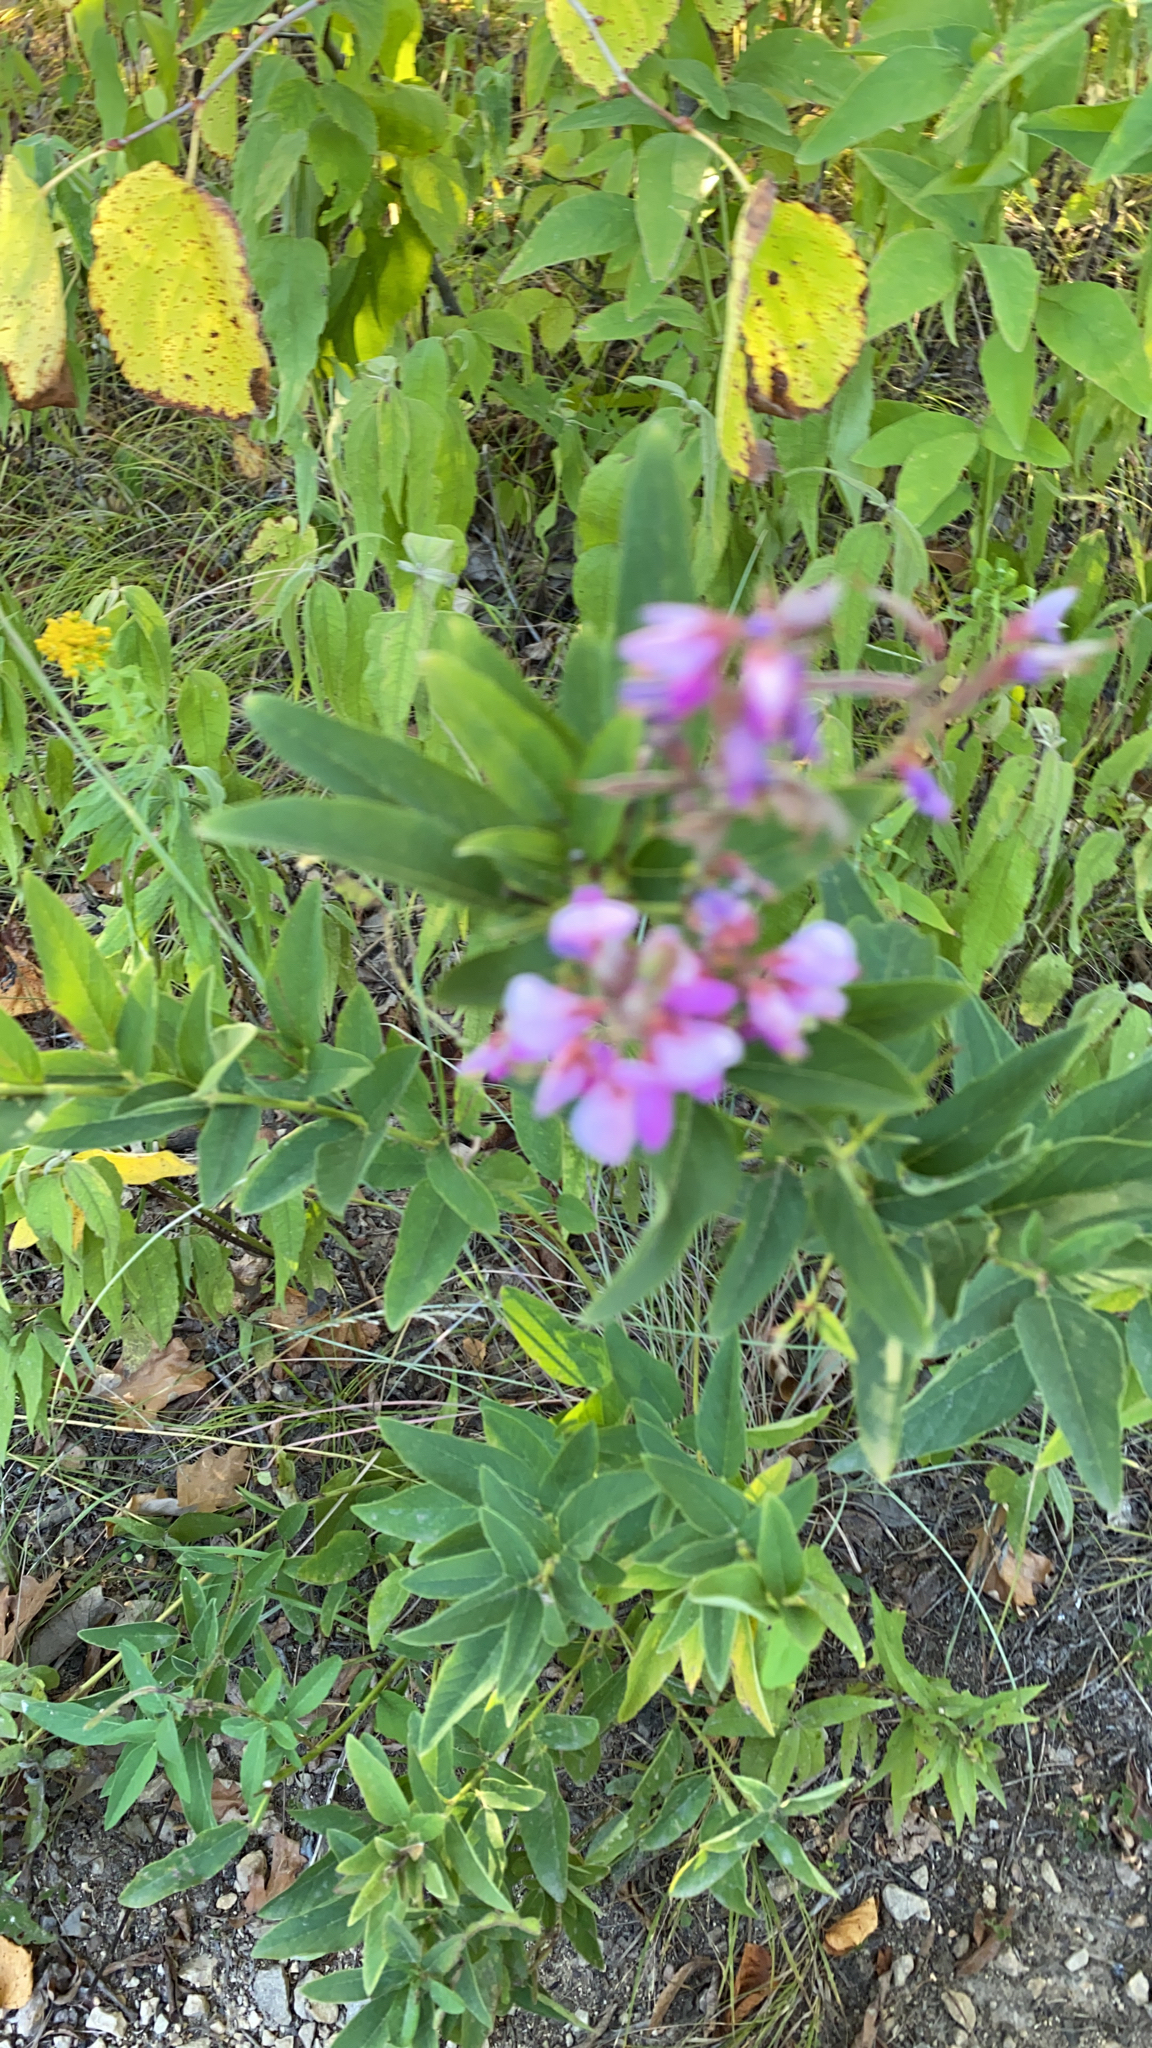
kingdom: Plantae
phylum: Tracheophyta
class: Magnoliopsida
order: Fabales
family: Fabaceae
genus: Desmodium
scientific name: Desmodium canadense
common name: Canada tick-trefoil
